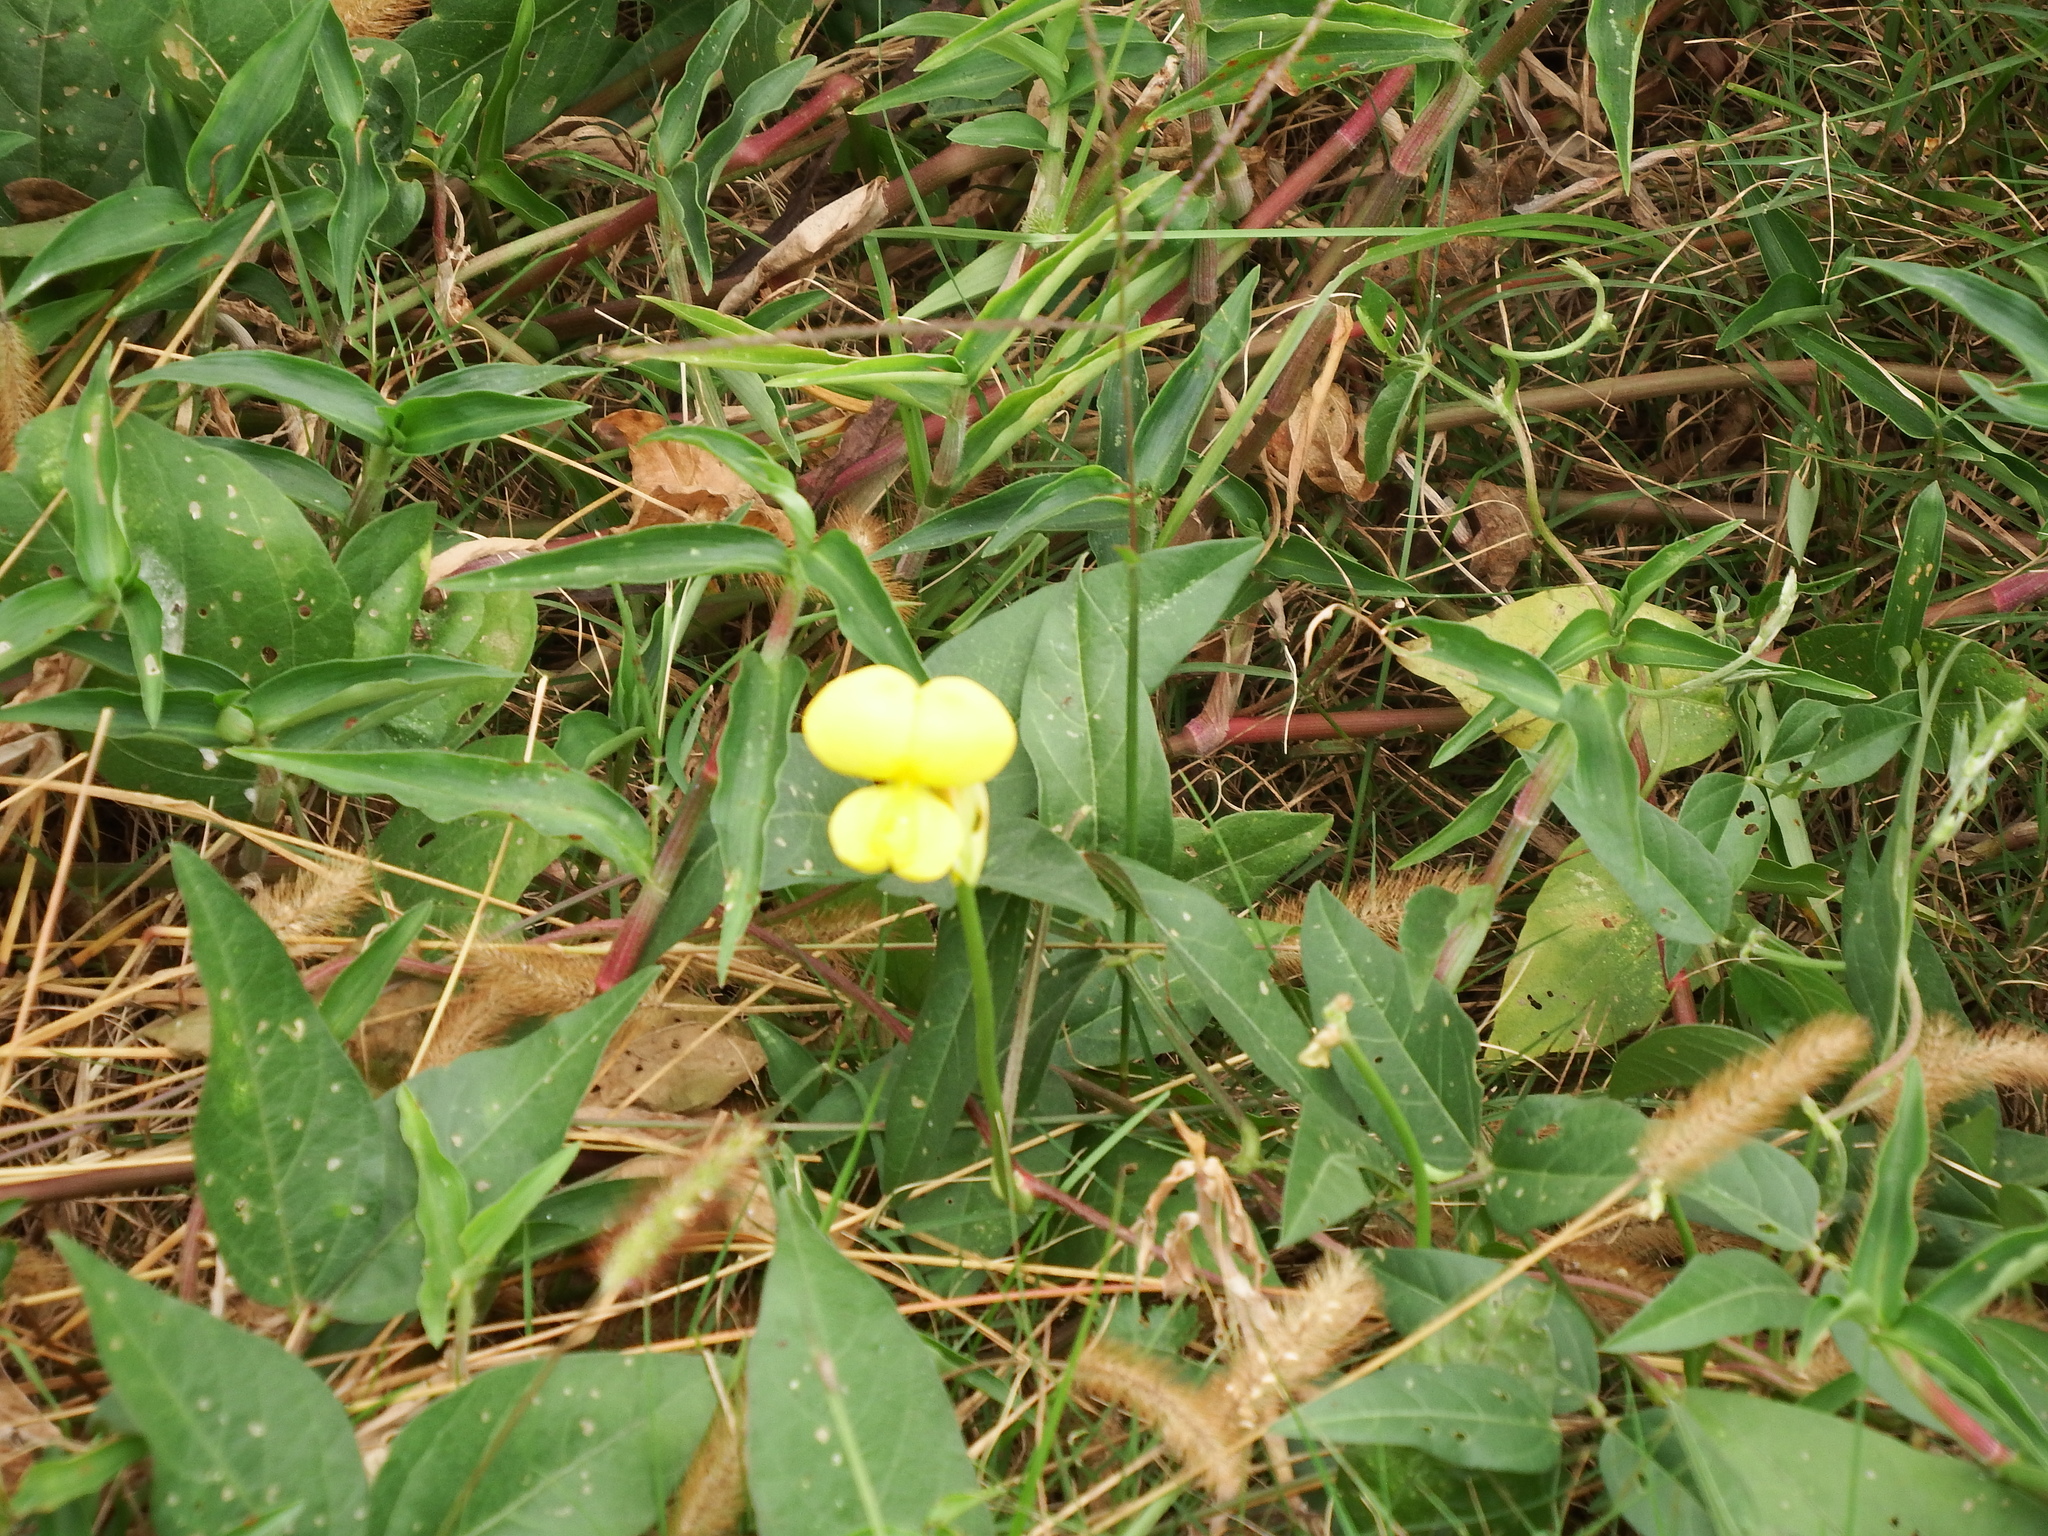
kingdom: Plantae
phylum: Tracheophyta
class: Magnoliopsida
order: Fabales
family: Fabaceae
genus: Vigna
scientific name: Vigna luteola
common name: Hairypod cowpea
